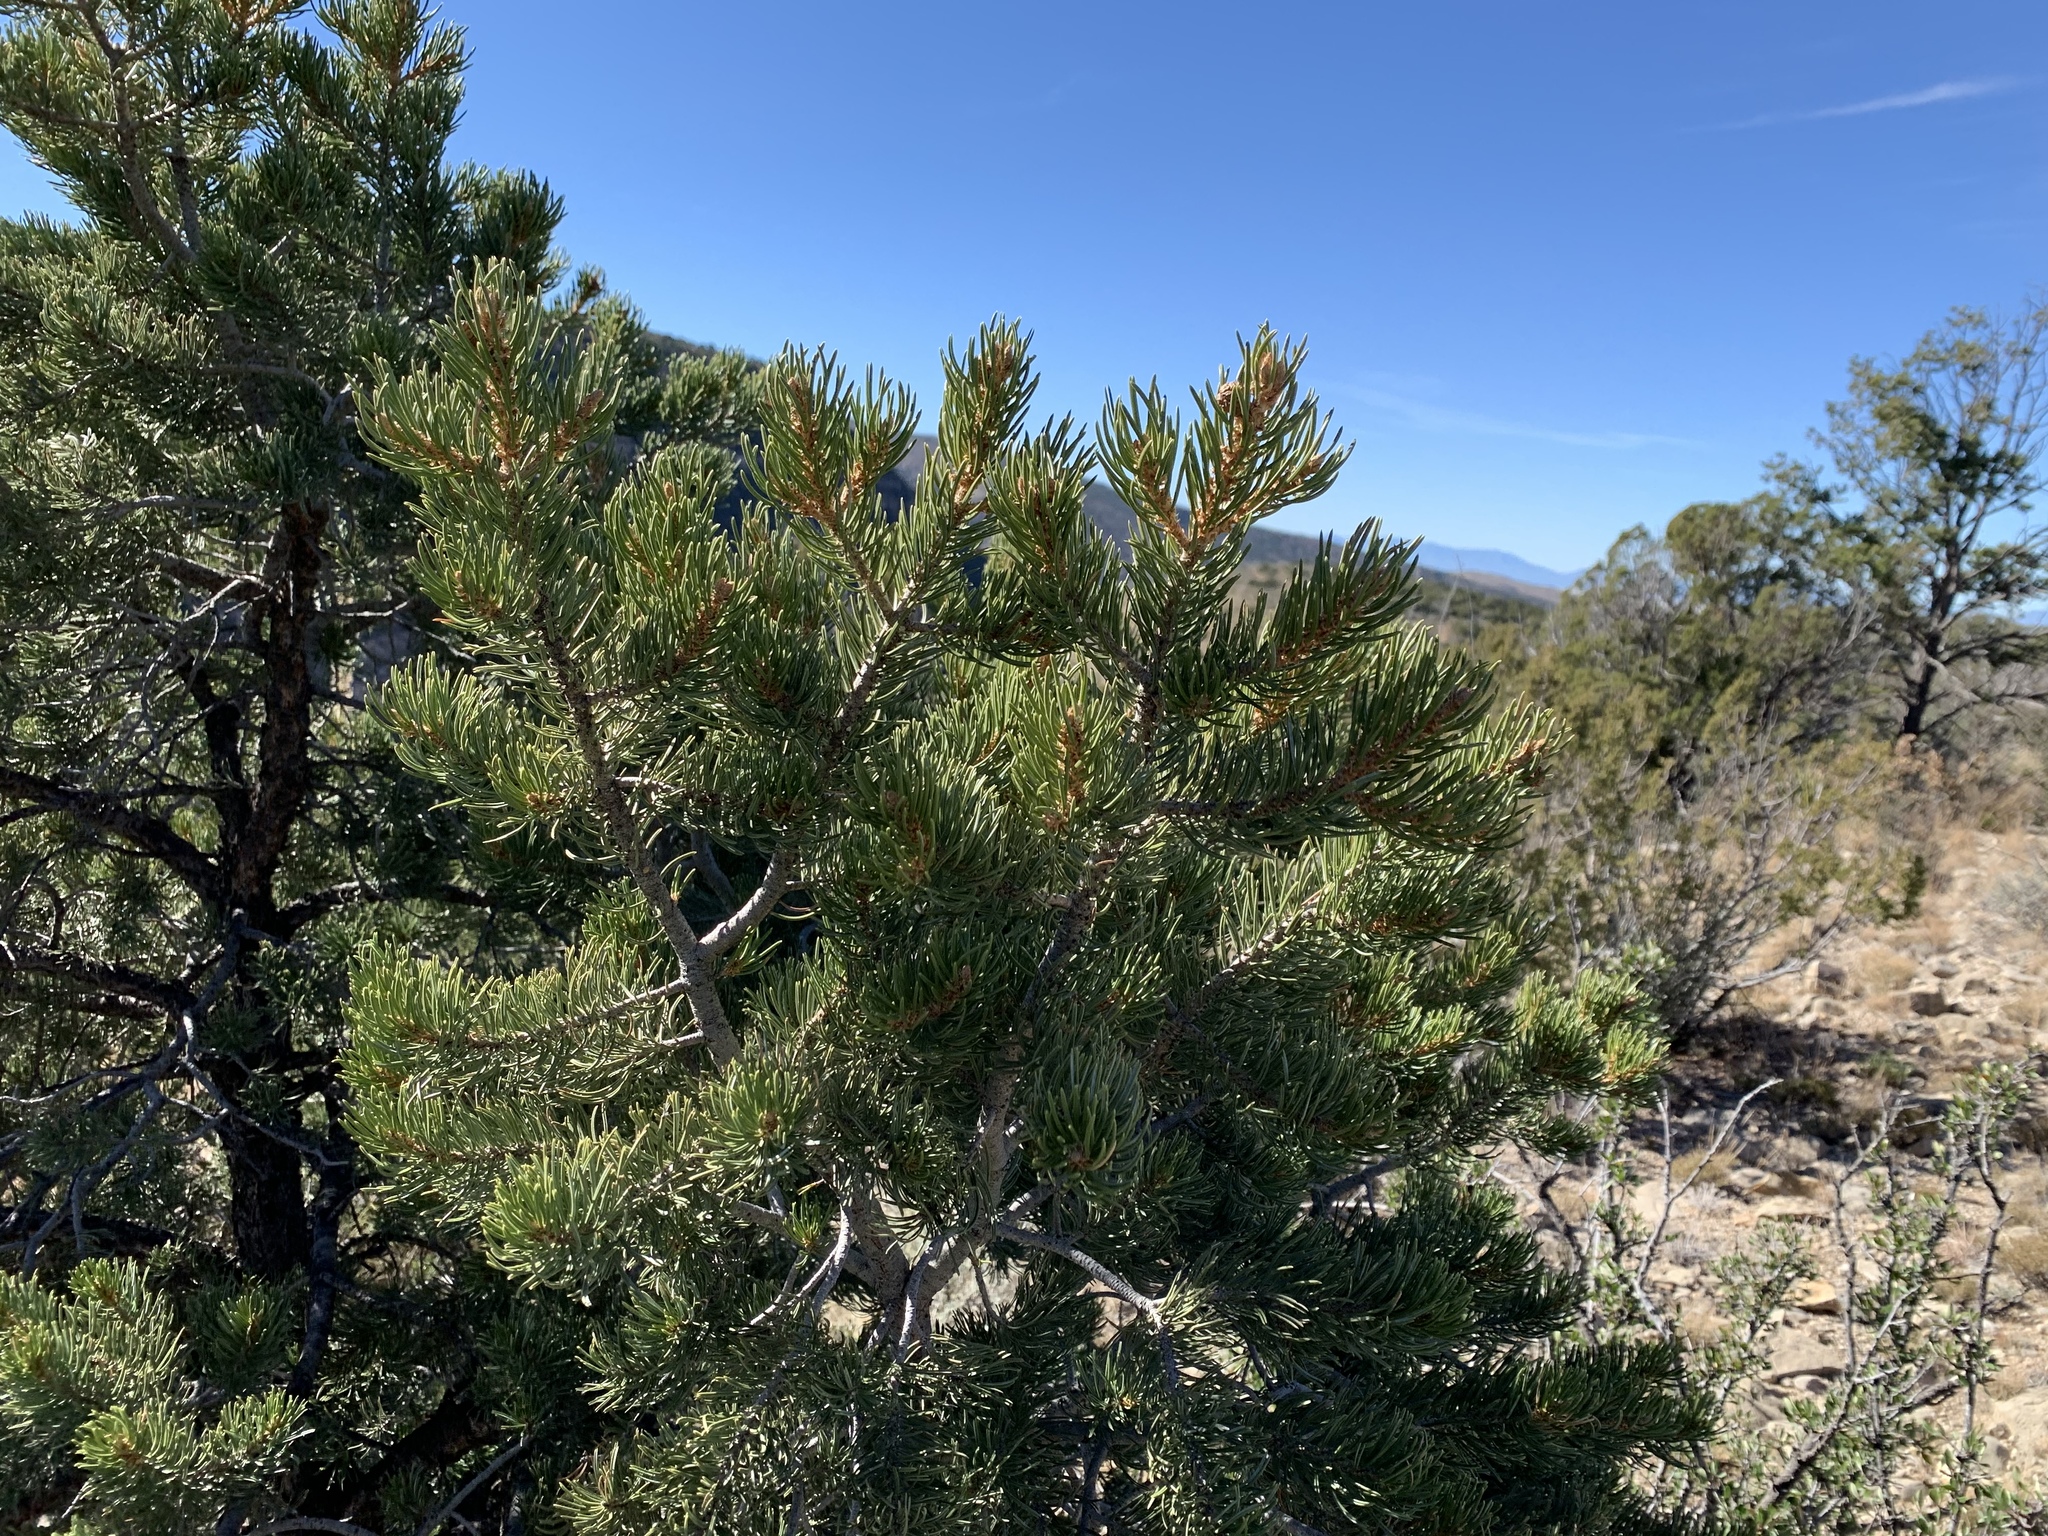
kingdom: Plantae
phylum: Tracheophyta
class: Pinopsida
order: Pinales
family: Pinaceae
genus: Pinus
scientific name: Pinus edulis
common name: Colorado pinyon
